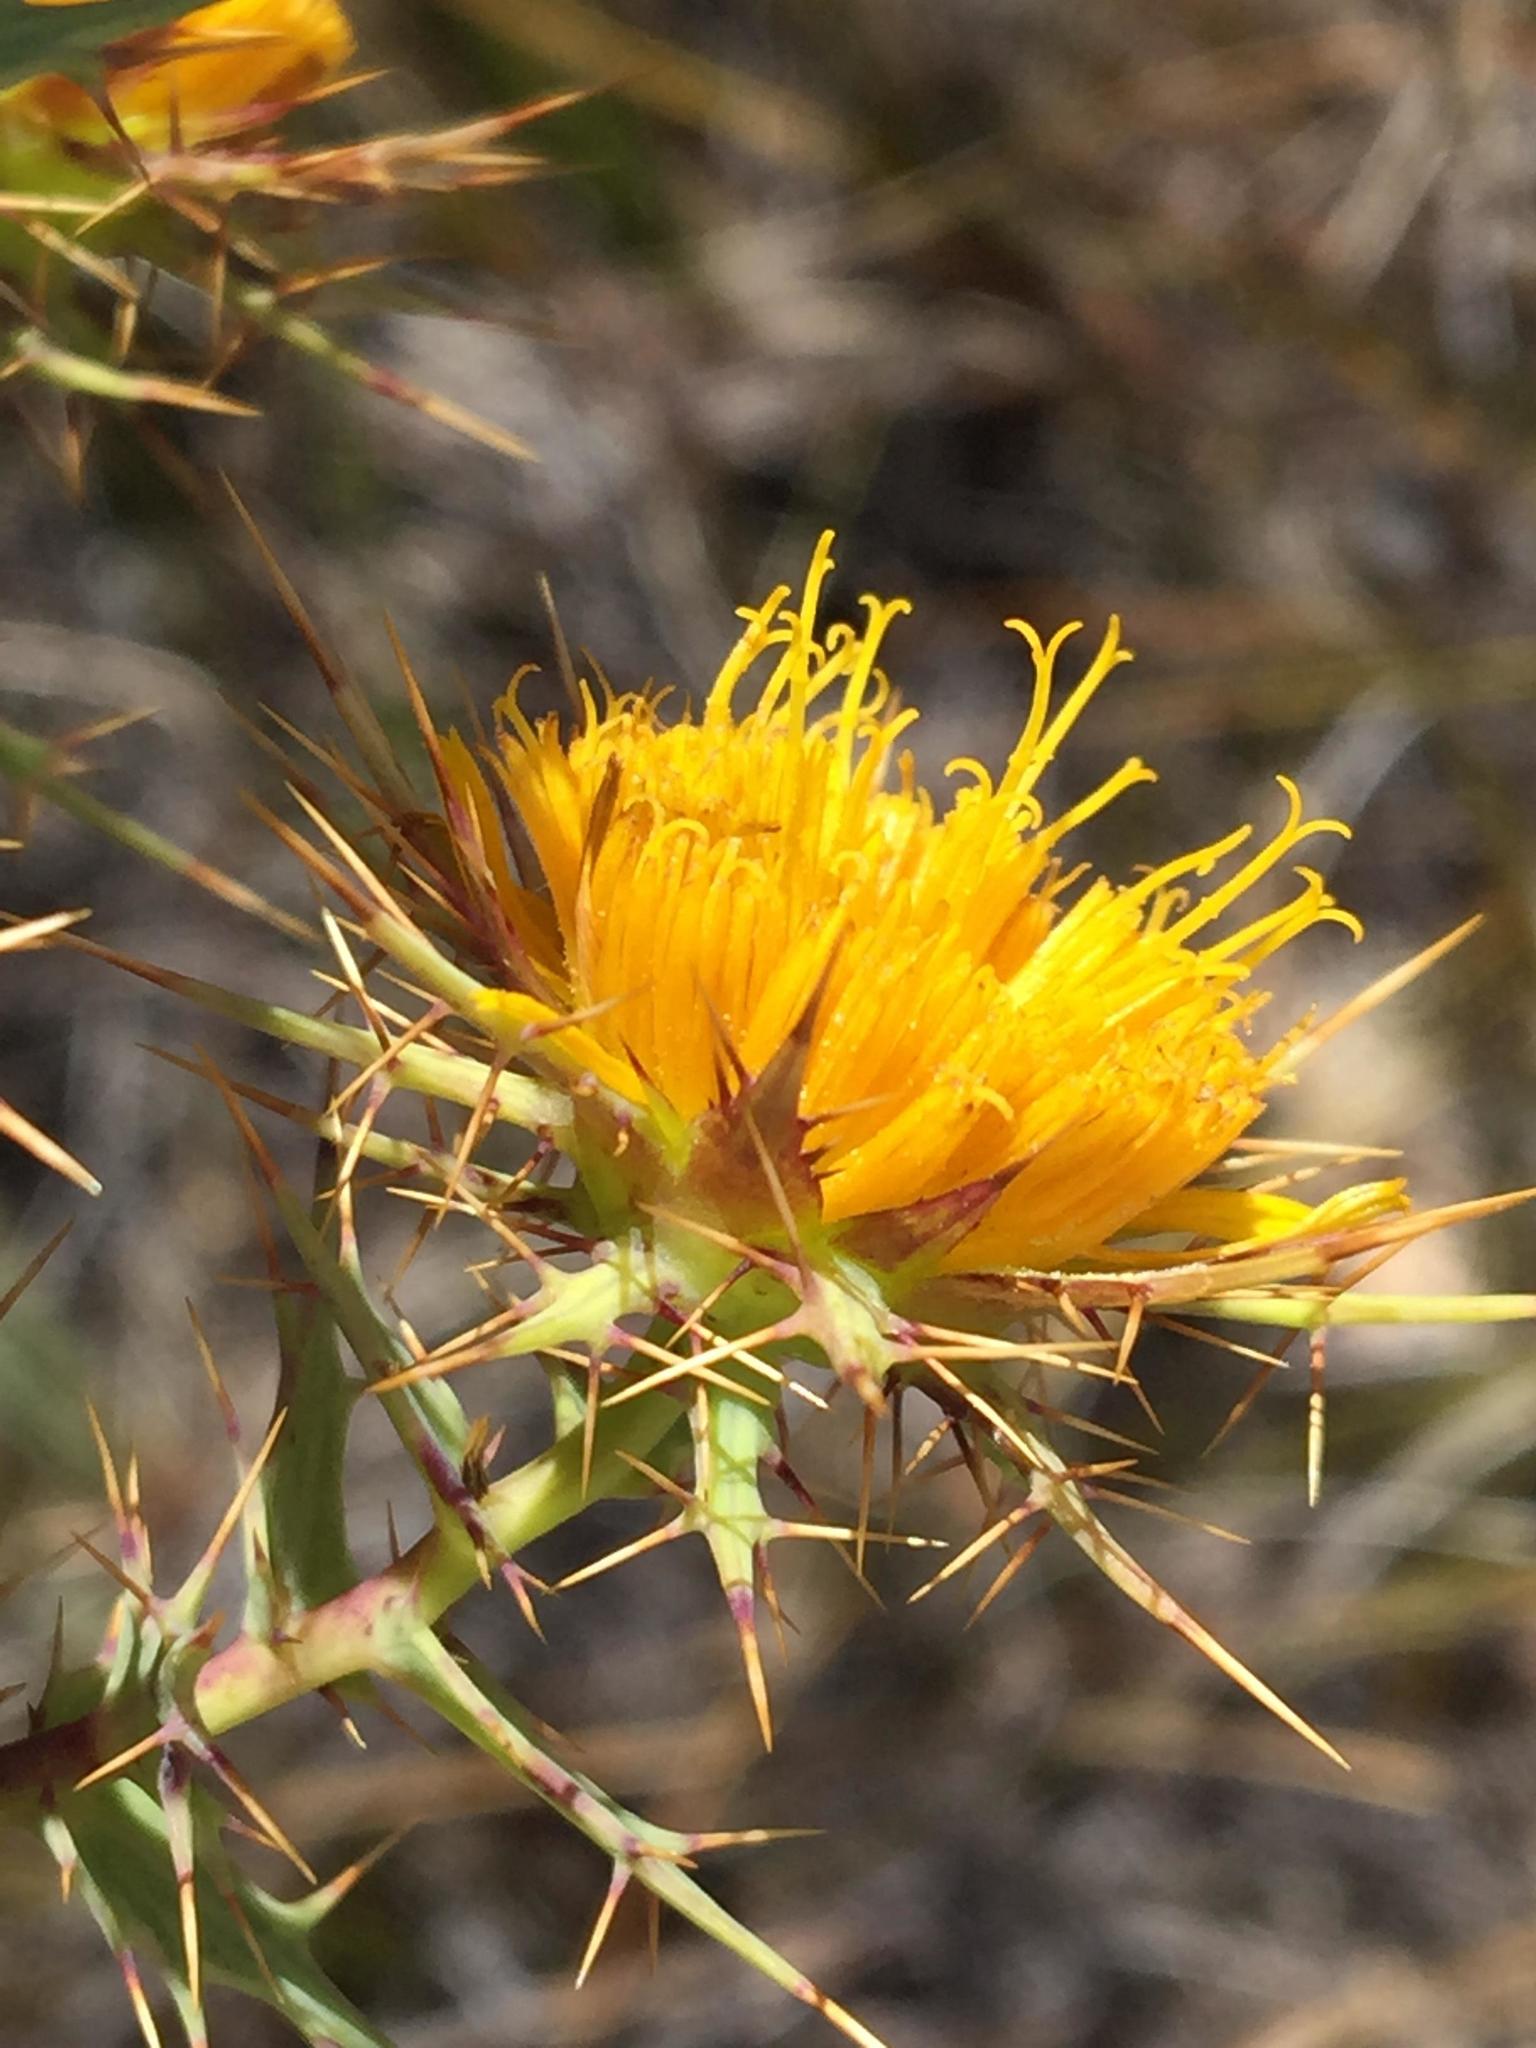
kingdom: Plantae
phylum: Tracheophyta
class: Magnoliopsida
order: Asterales
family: Asteraceae
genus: Berkheya
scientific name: Berkheya cruciata
